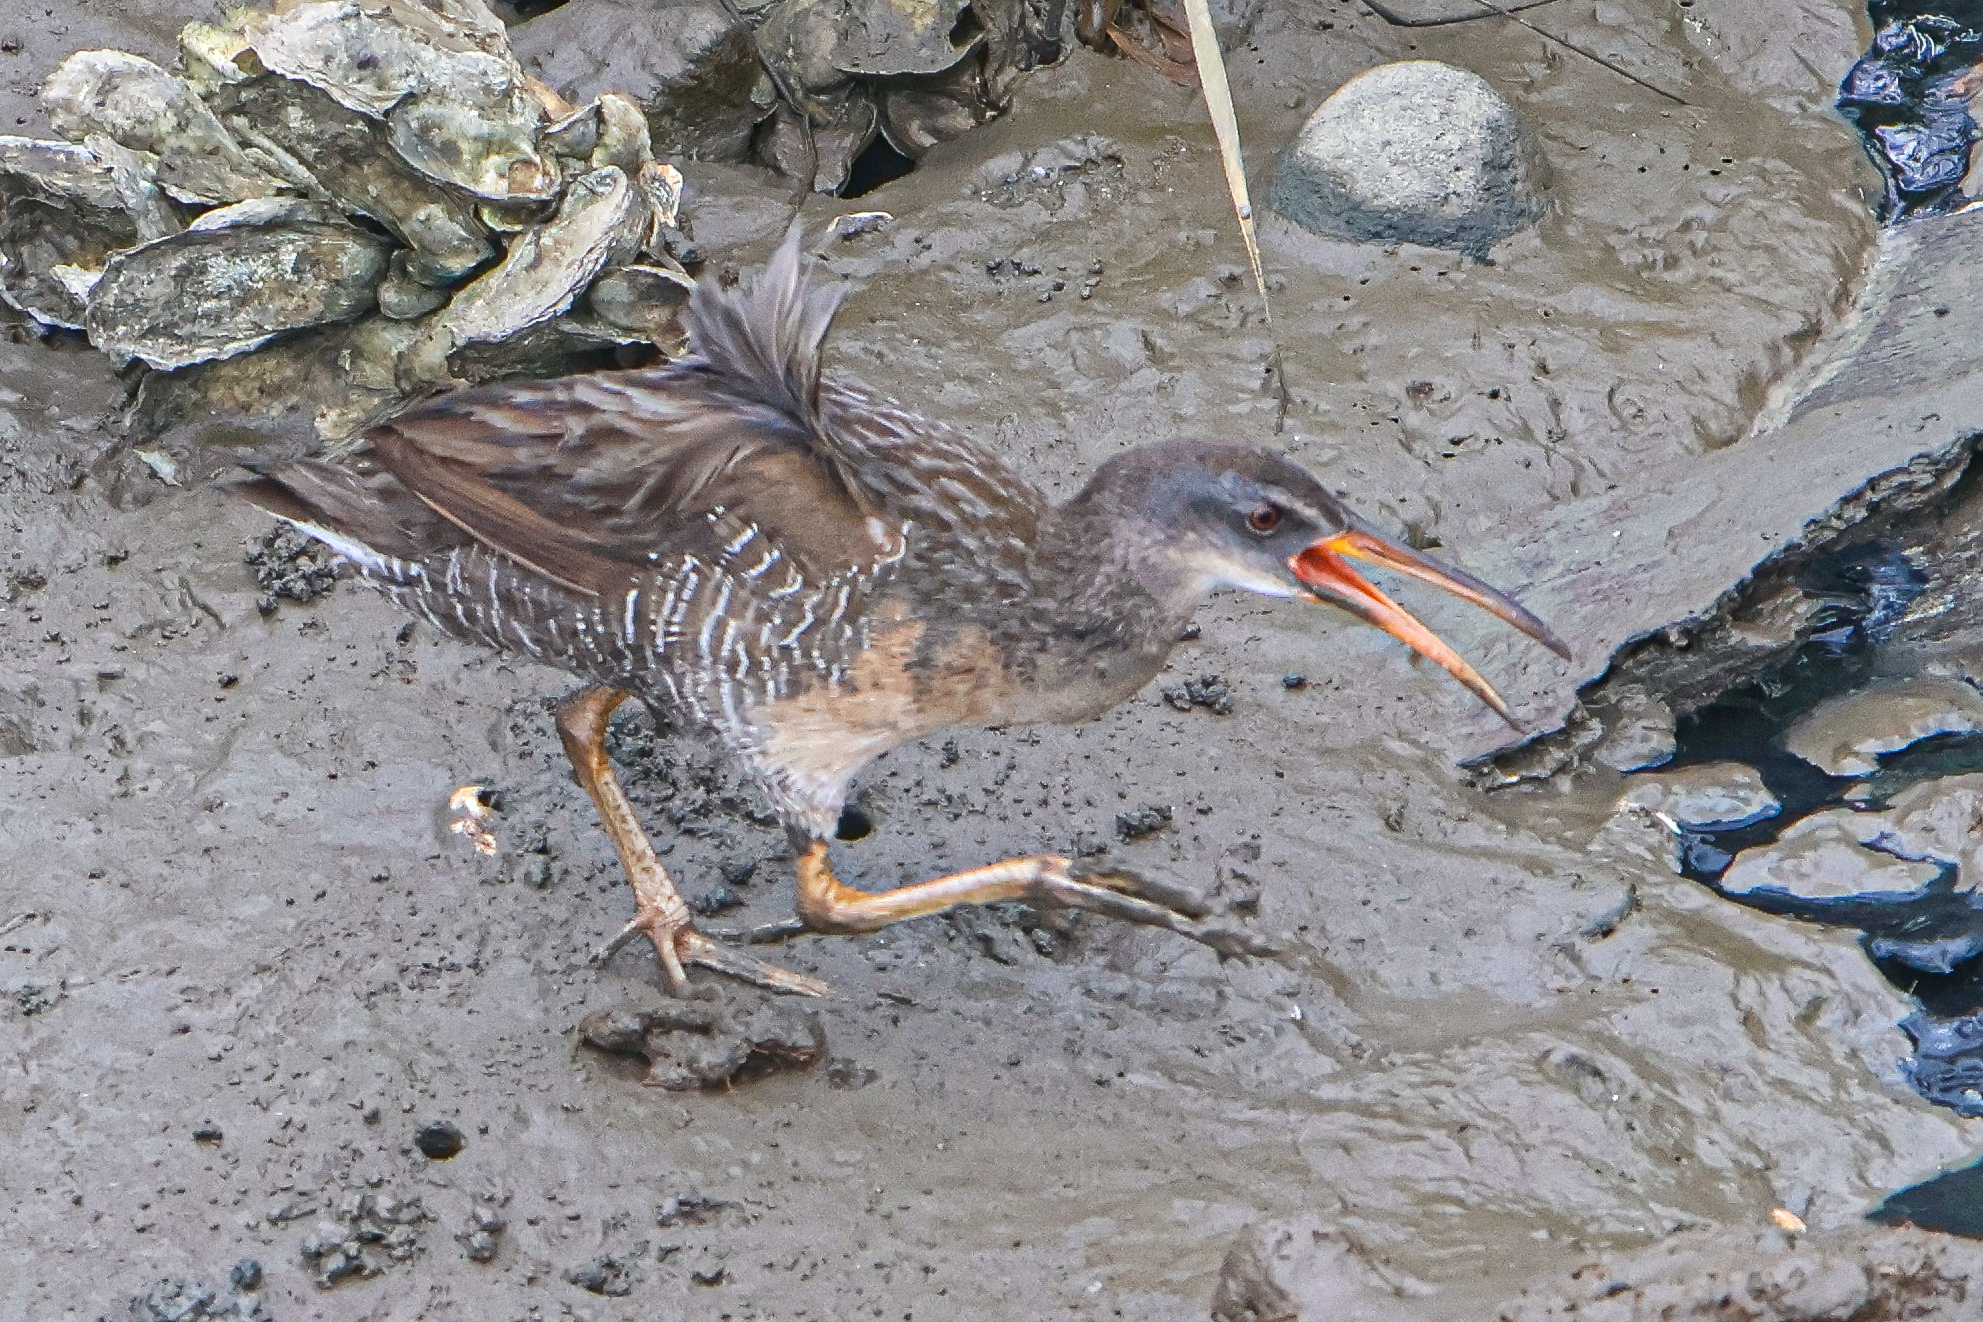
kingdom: Animalia
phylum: Chordata
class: Aves
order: Gruiformes
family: Rallidae
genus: Rallus
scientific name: Rallus crepitans
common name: Clapper rail
